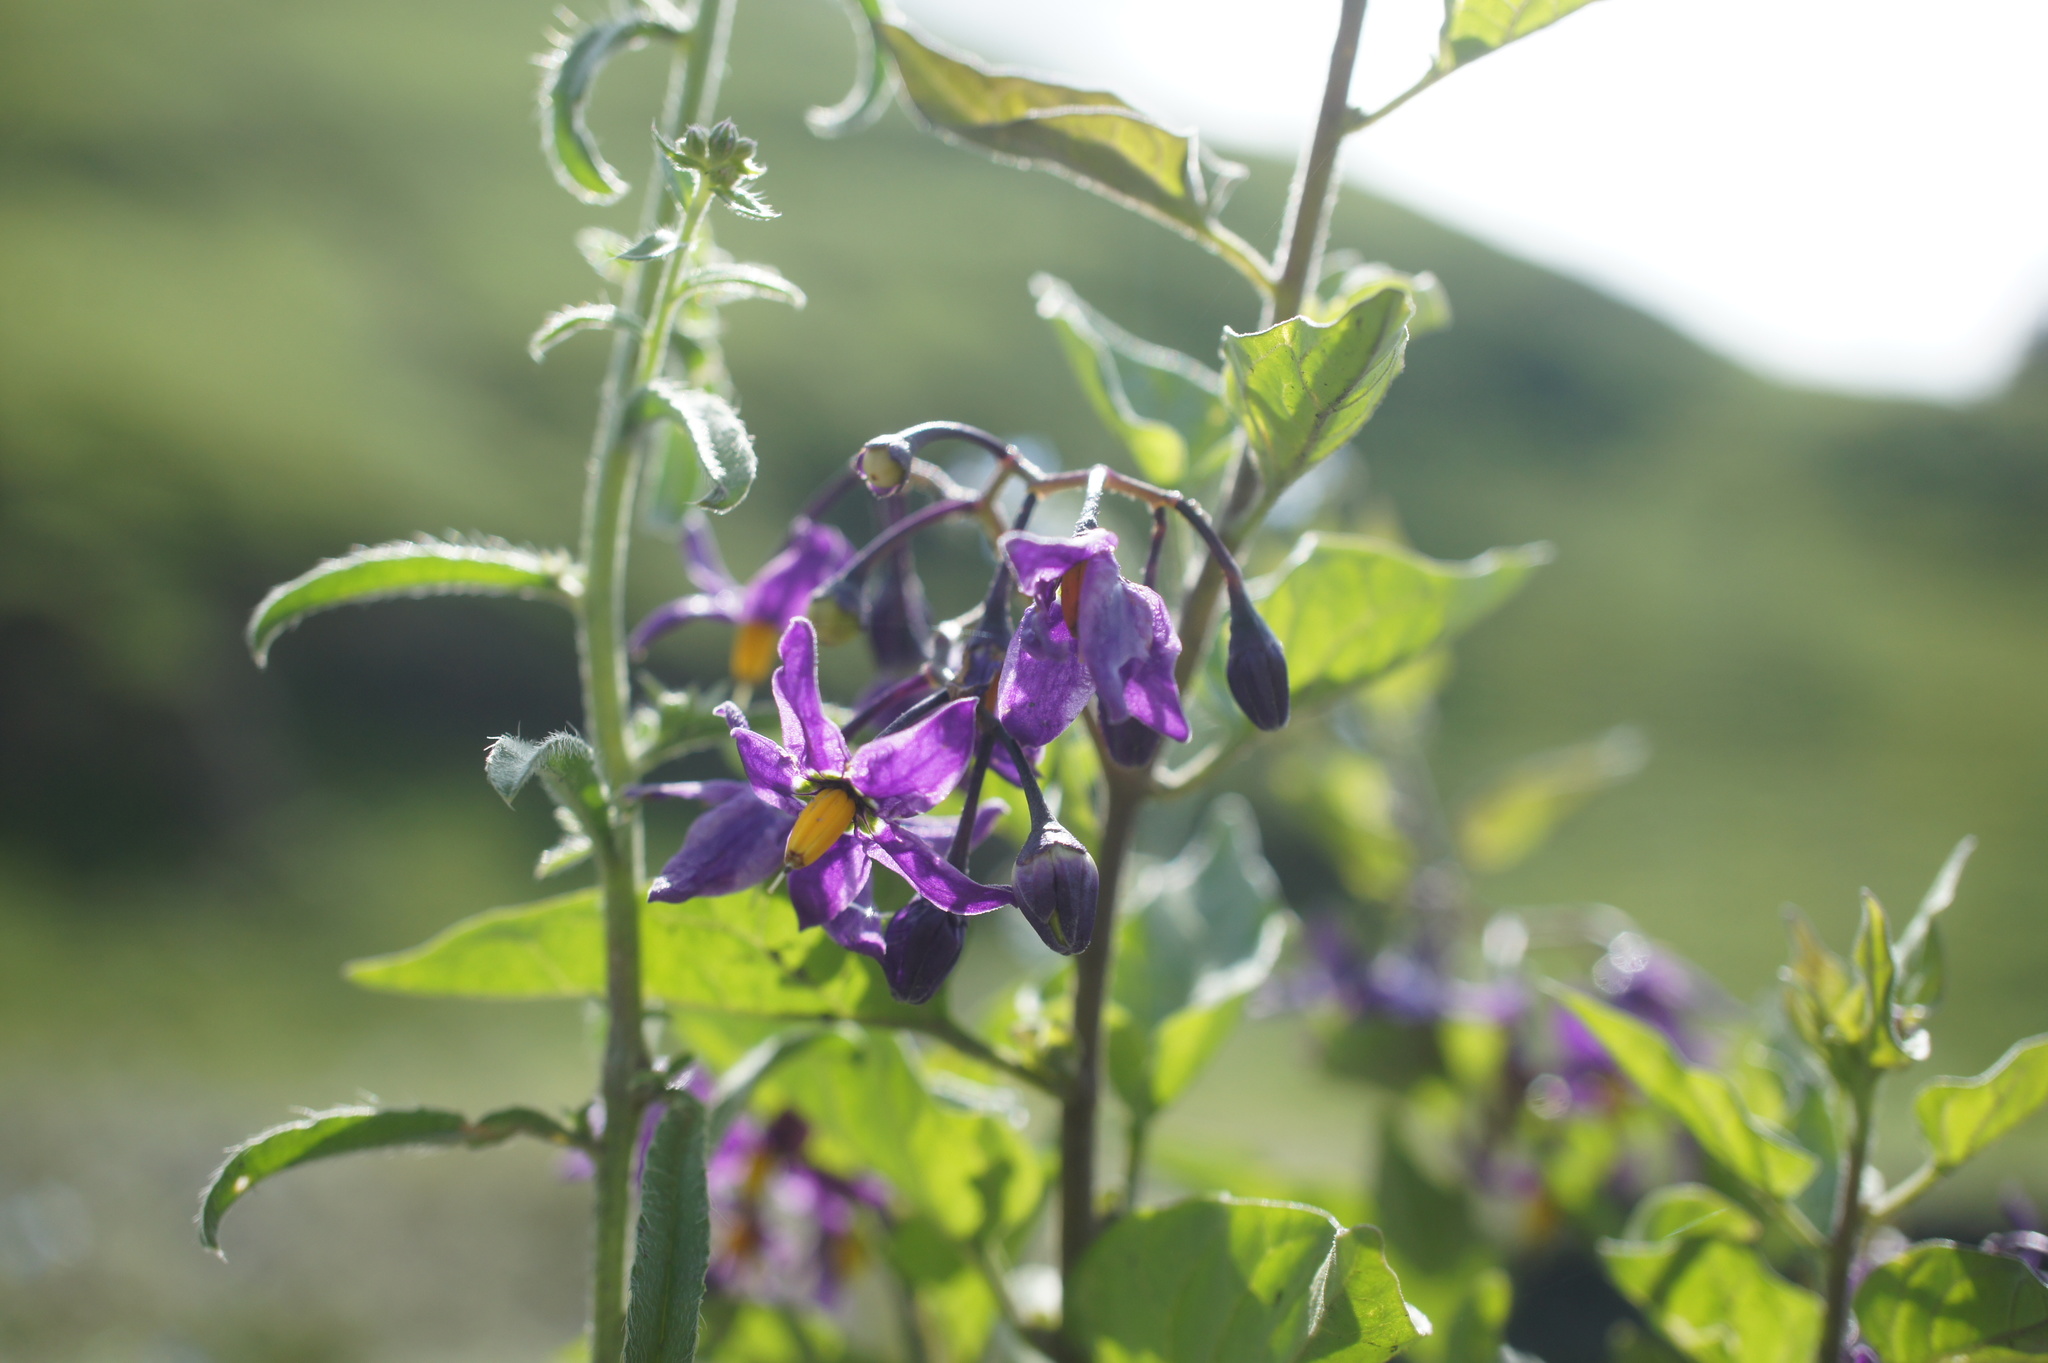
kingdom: Plantae
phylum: Tracheophyta
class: Magnoliopsida
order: Solanales
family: Solanaceae
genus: Solanum
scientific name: Solanum dulcamara
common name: Climbing nightshade
